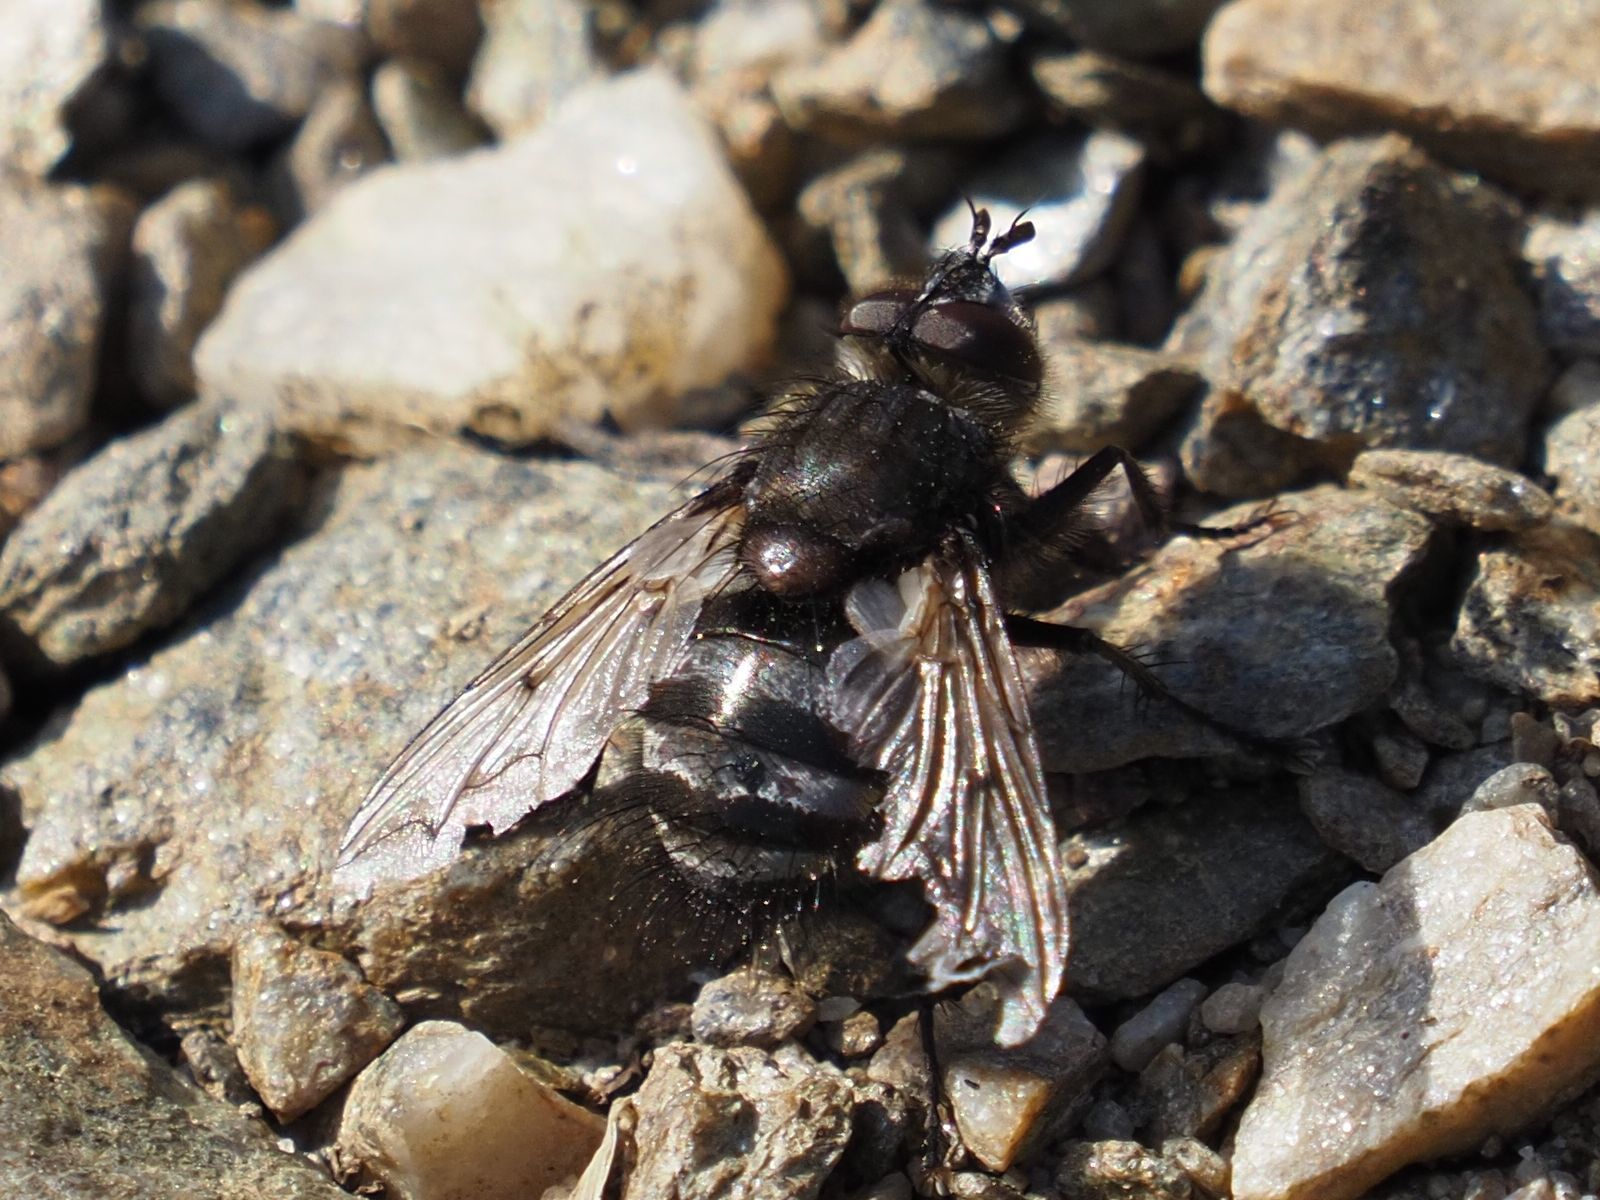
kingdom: Animalia
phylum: Arthropoda
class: Insecta
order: Diptera
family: Tachinidae
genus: Panzeria
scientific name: Panzeria puparum
